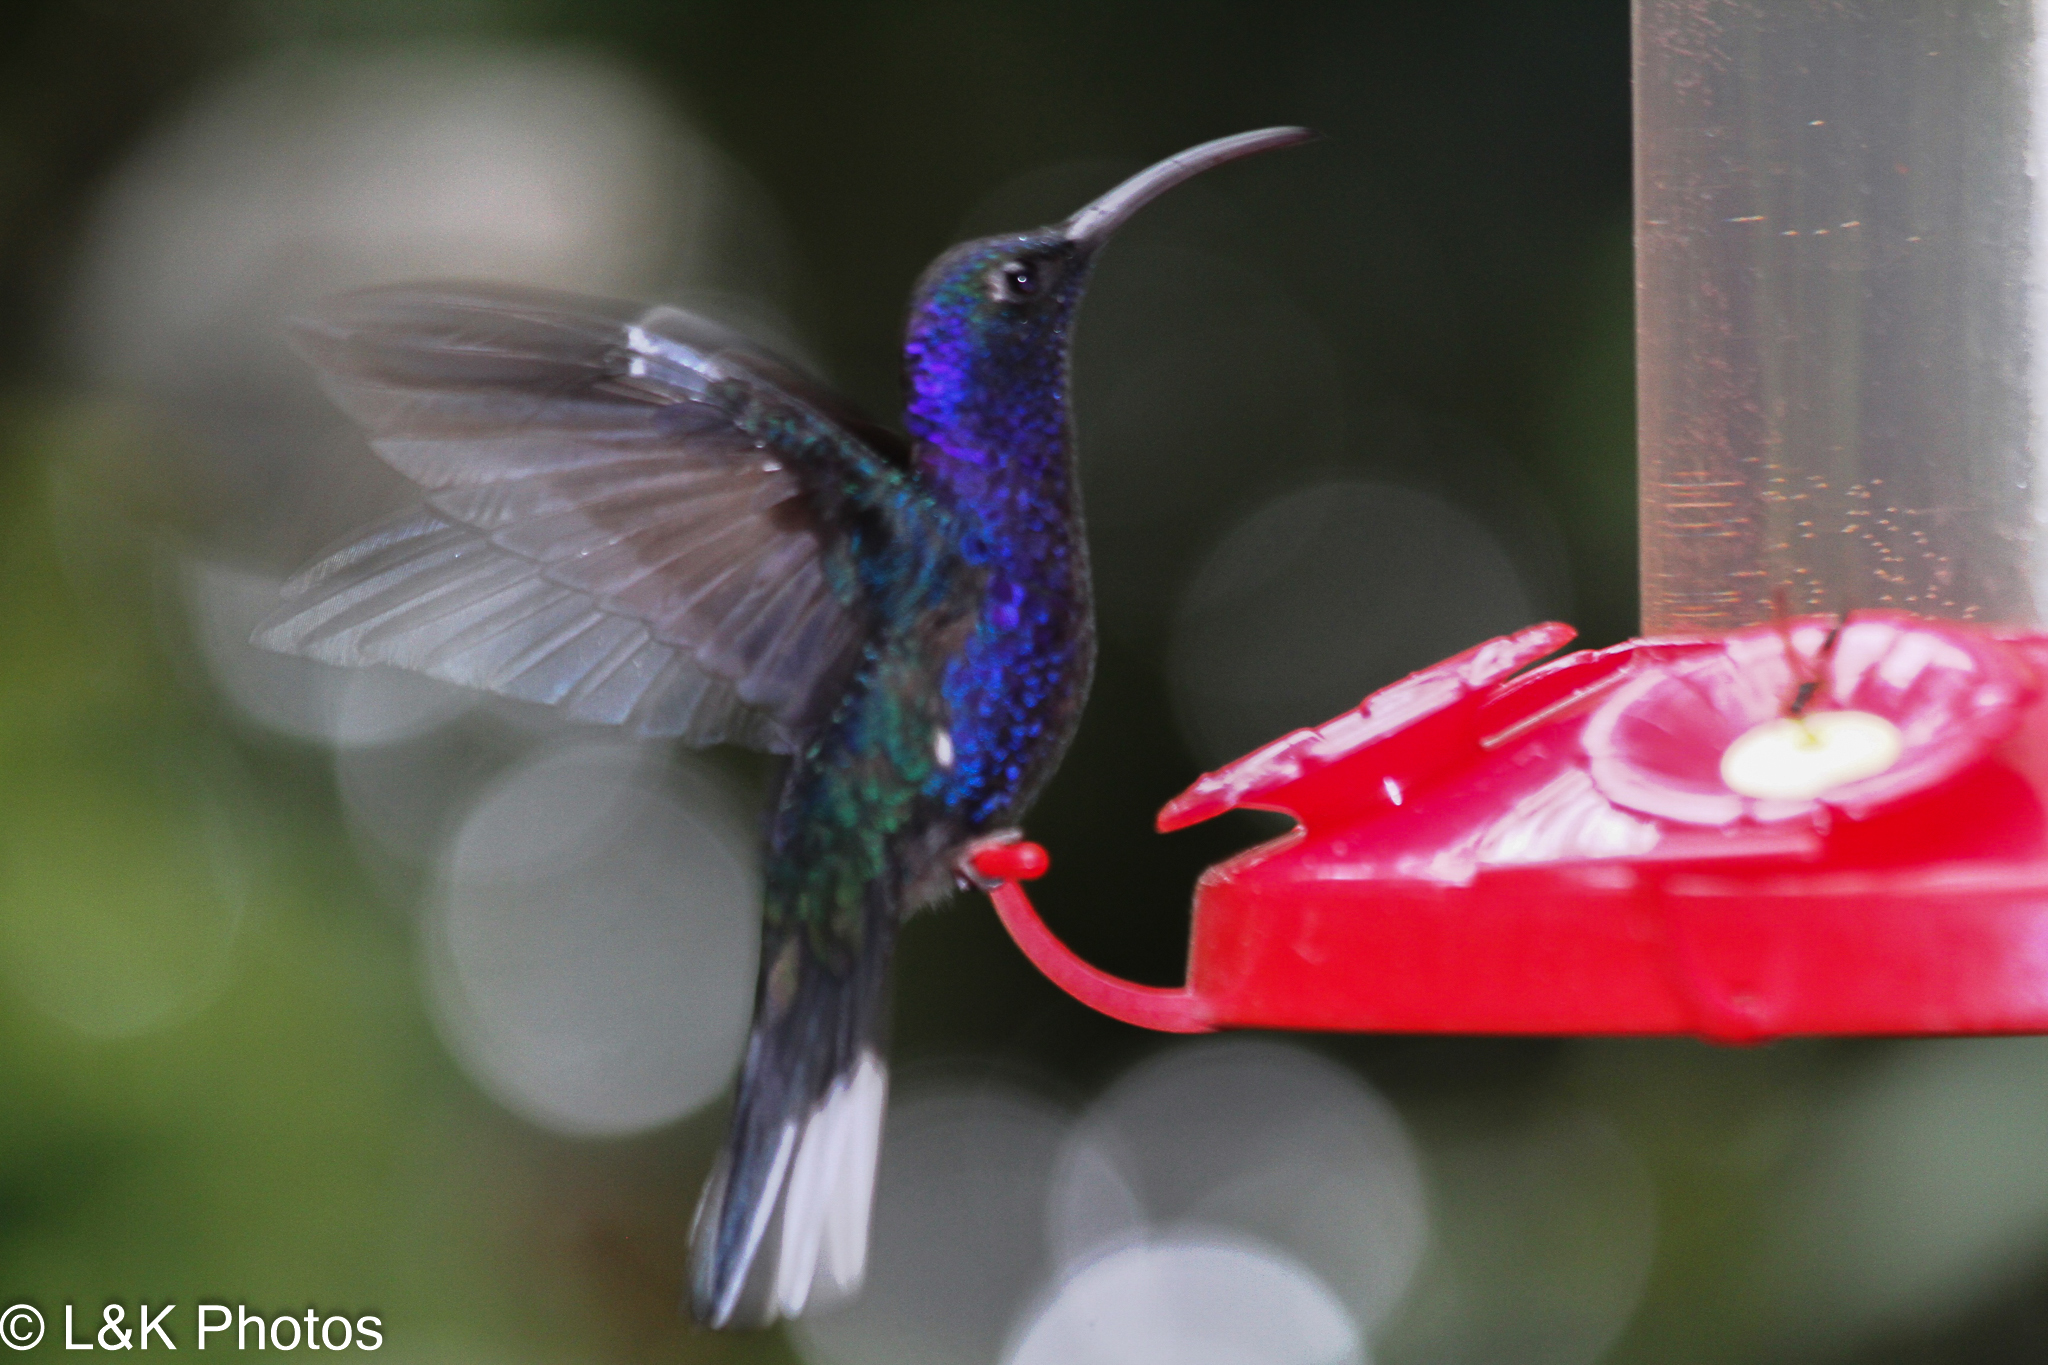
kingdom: Animalia
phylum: Chordata
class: Aves
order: Apodiformes
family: Trochilidae
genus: Campylopterus
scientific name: Campylopterus hemileucurus
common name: Violet sabrewing
